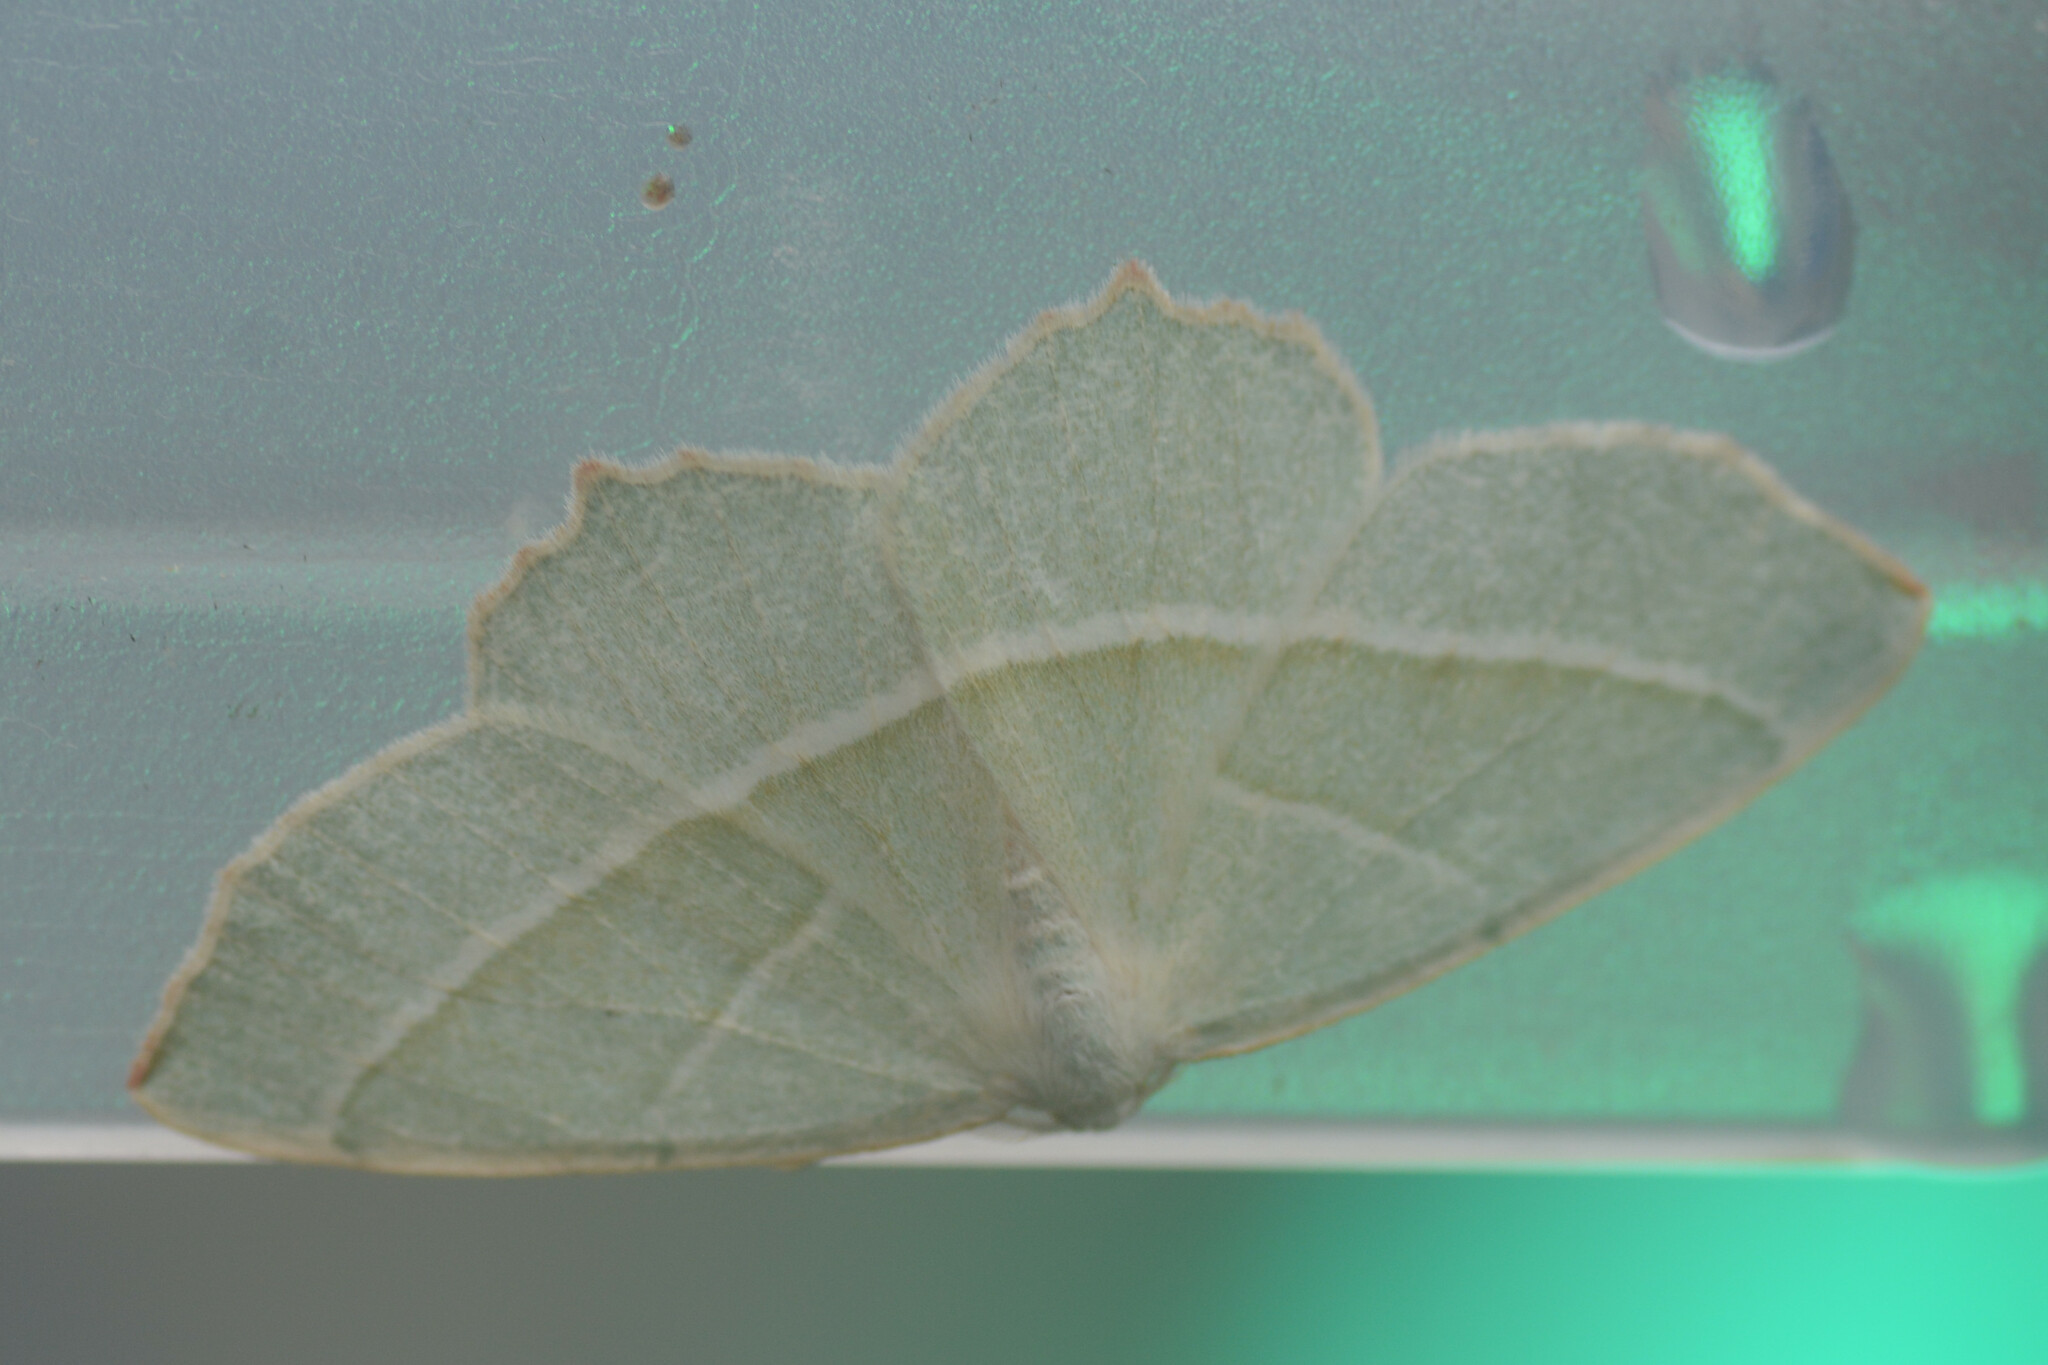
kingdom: Animalia
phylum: Arthropoda
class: Insecta
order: Lepidoptera
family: Geometridae
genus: Campaea
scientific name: Campaea margaritaria
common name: Light emerald
